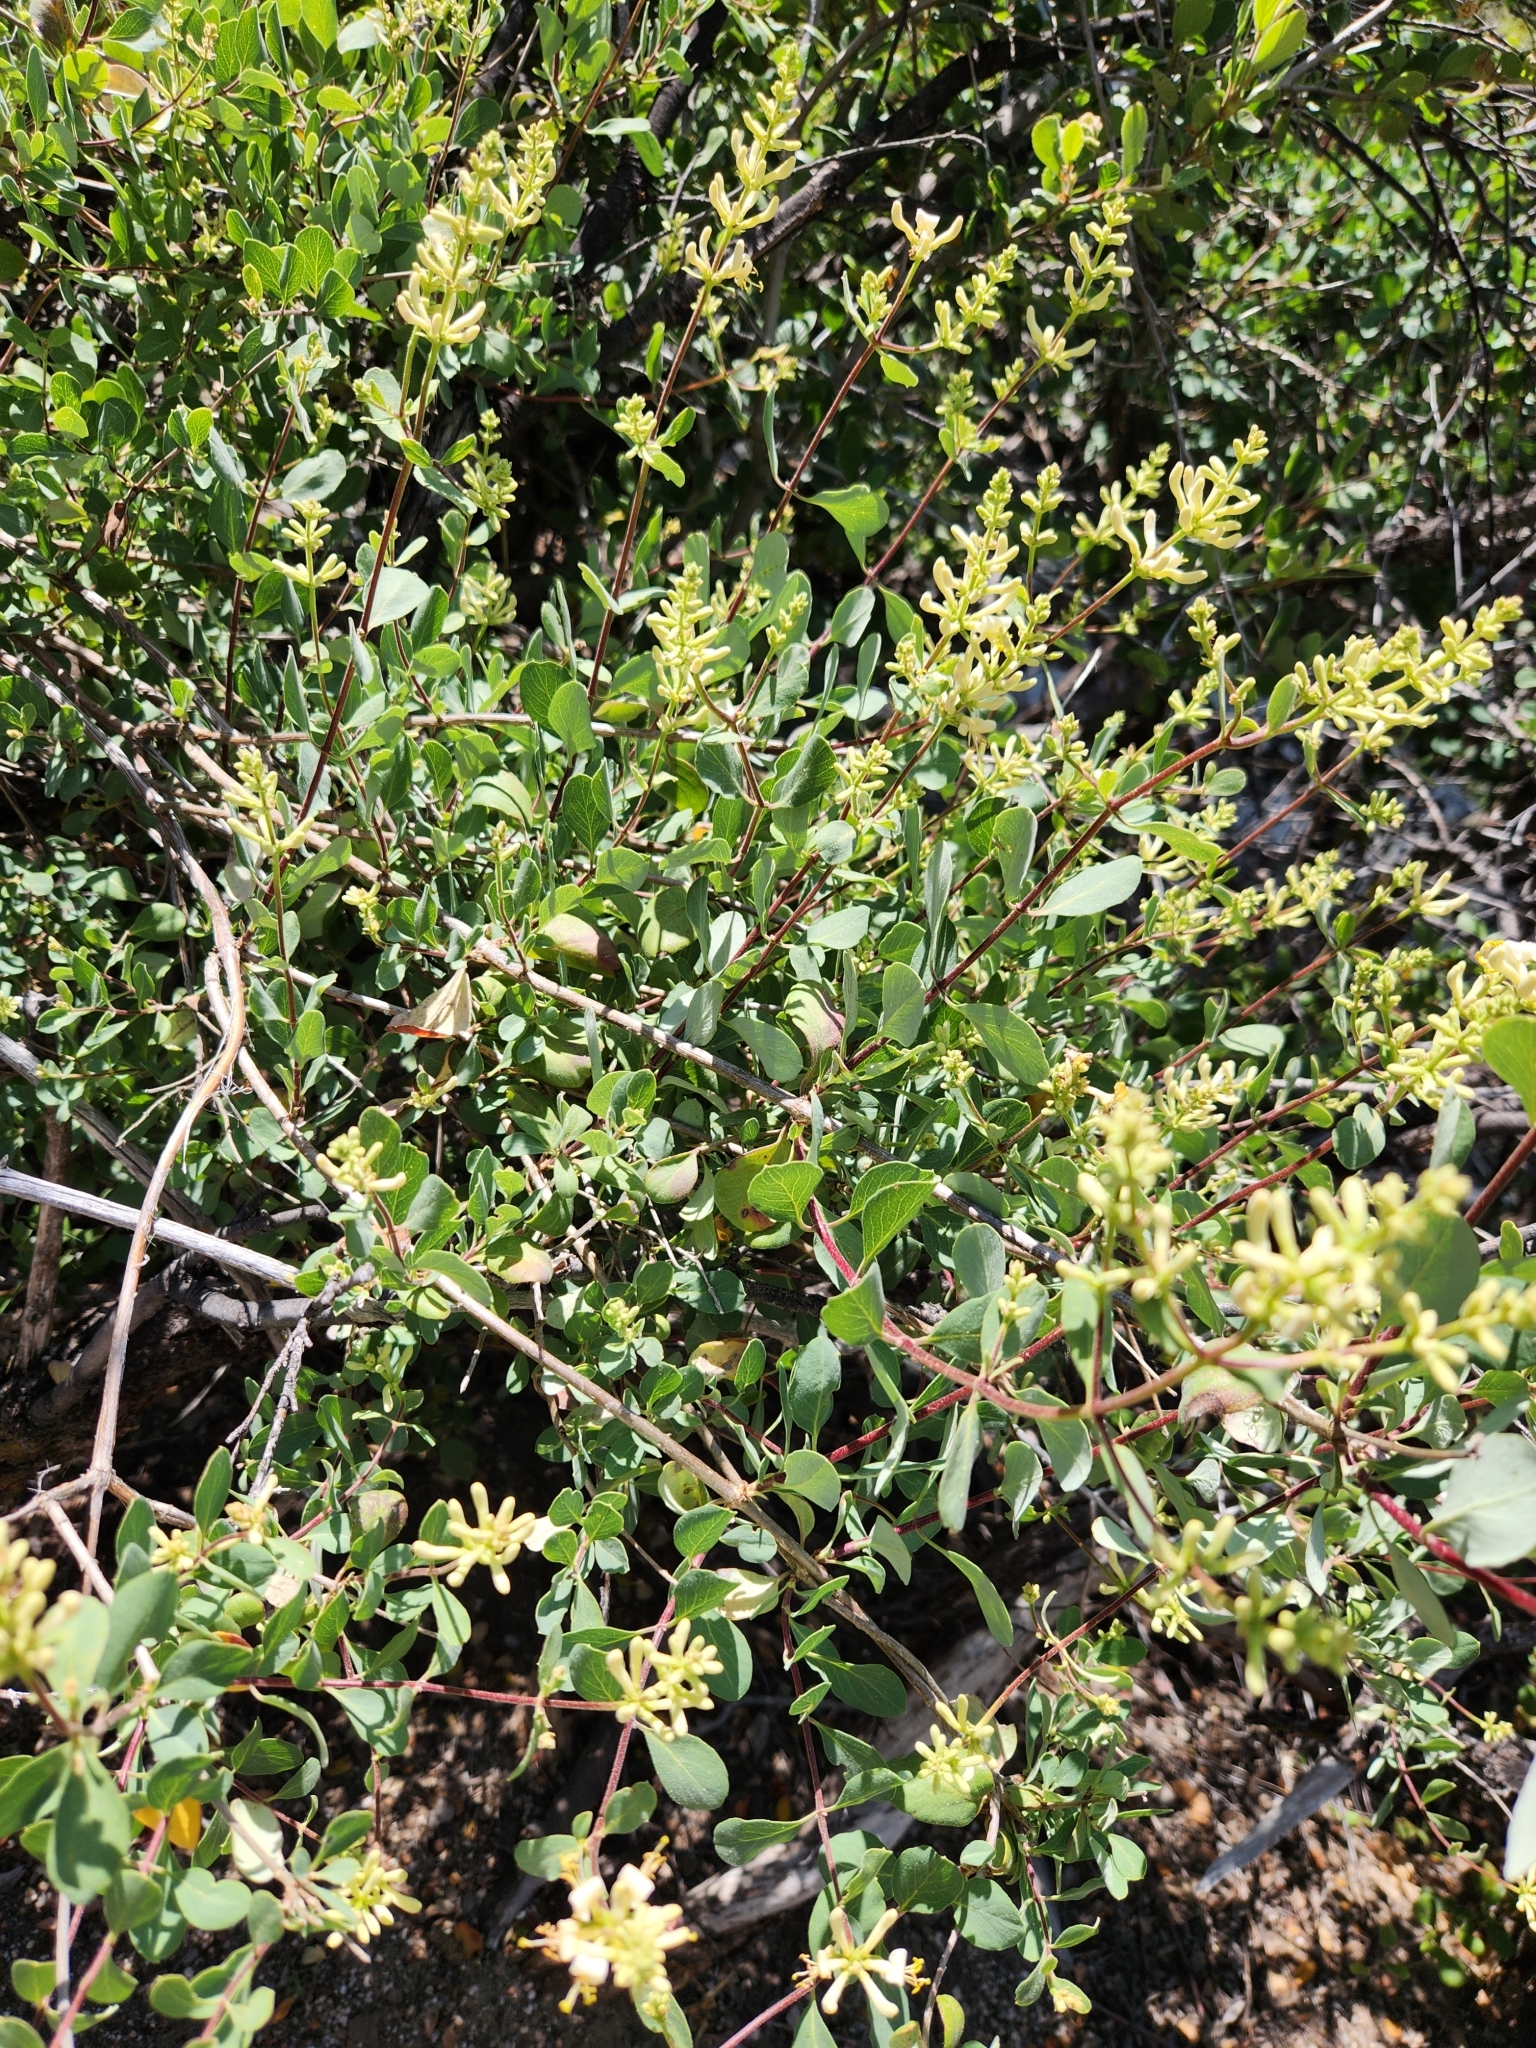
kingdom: Plantae
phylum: Tracheophyta
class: Magnoliopsida
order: Dipsacales
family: Caprifoliaceae
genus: Lonicera
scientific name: Lonicera subspicata
